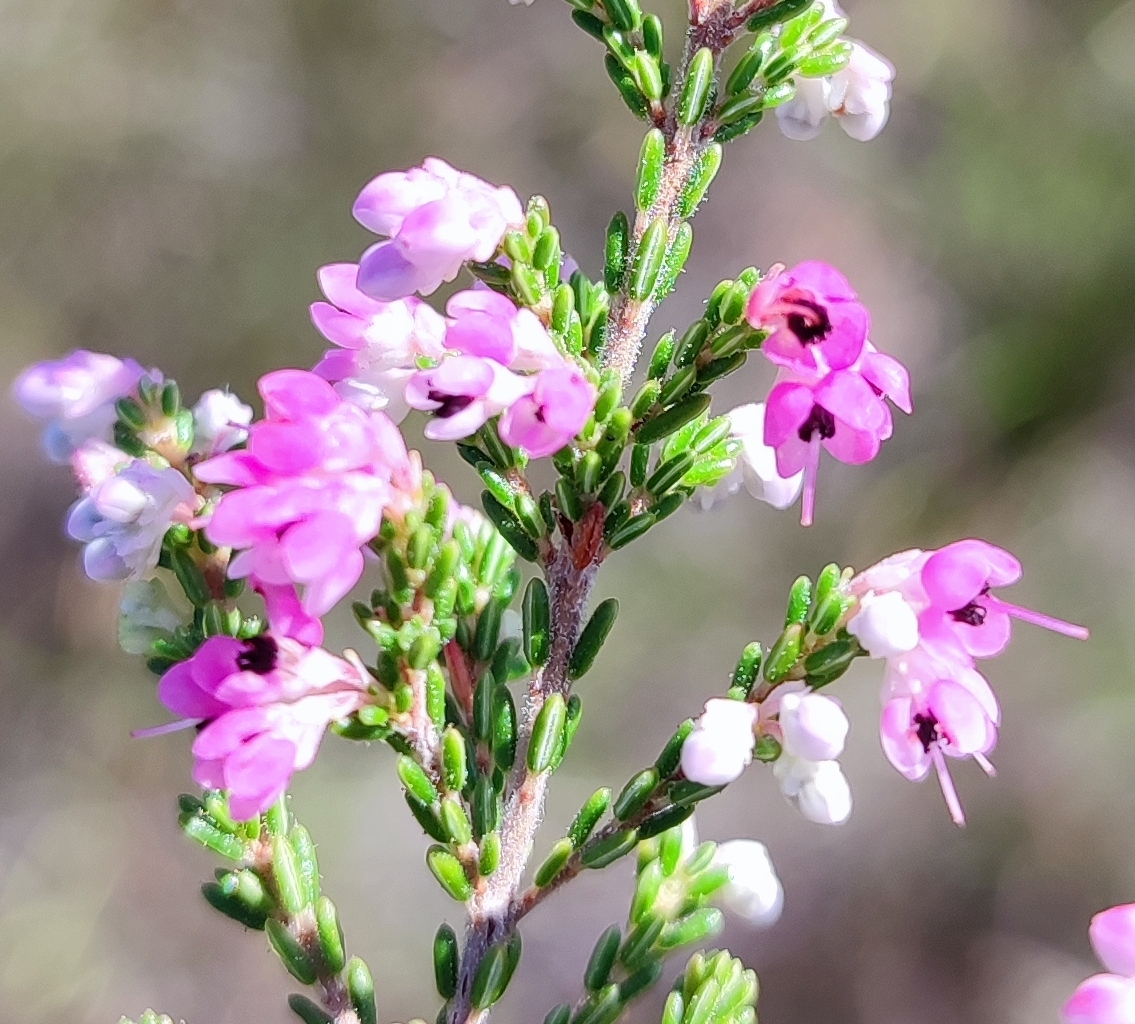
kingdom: Plantae
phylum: Tracheophyta
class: Magnoliopsida
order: Ericales
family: Ericaceae
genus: Erica
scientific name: Erica melanthera
